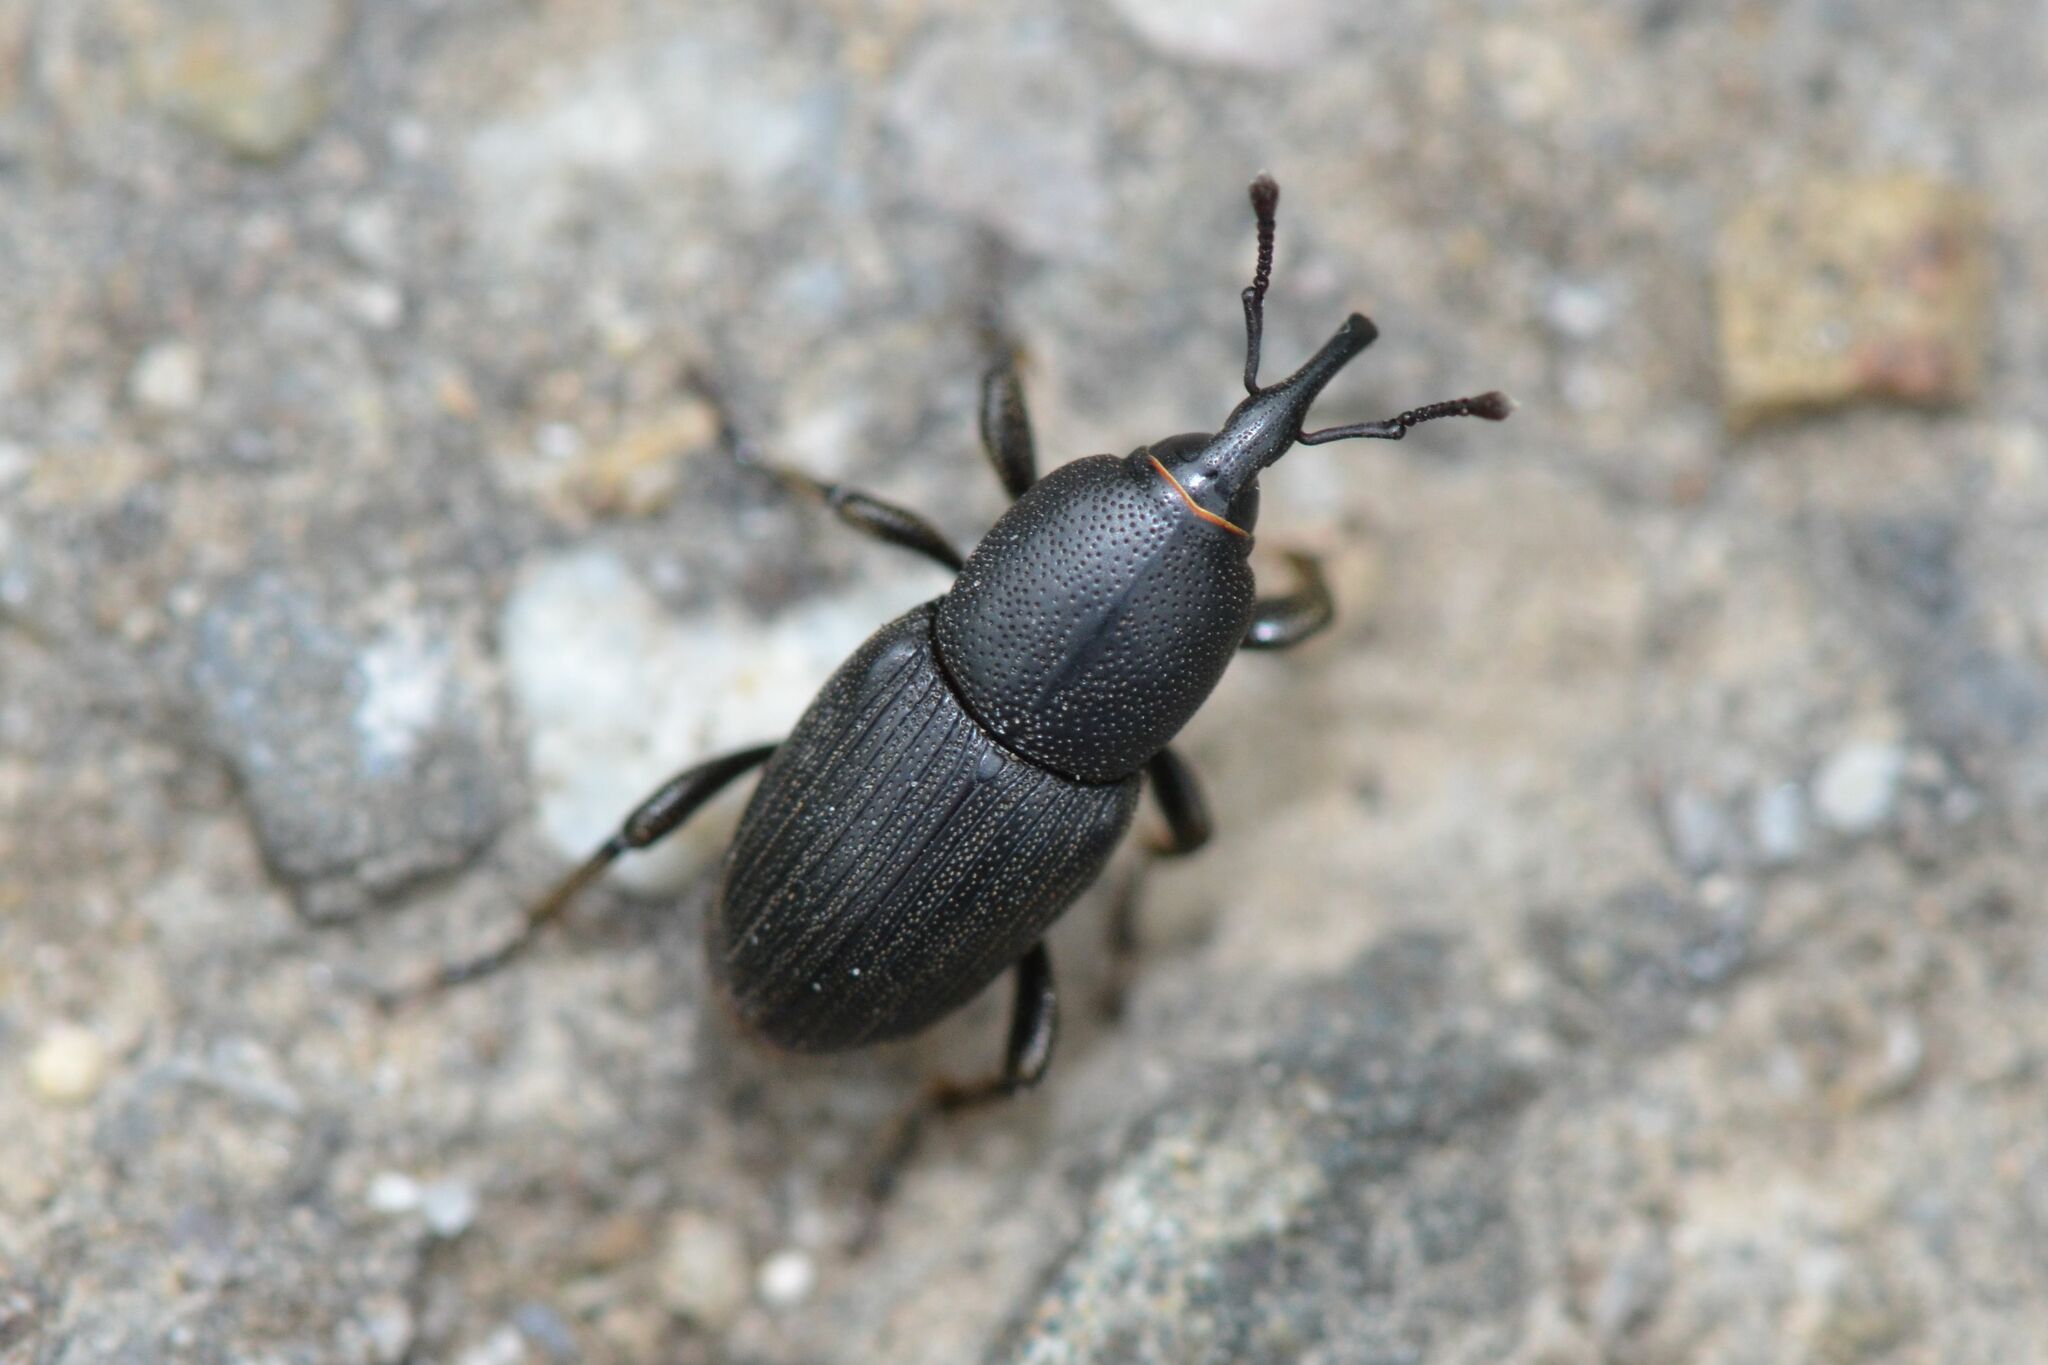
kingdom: Animalia
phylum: Arthropoda
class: Insecta
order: Coleoptera
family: Dryophthoridae
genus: Sphenophorus
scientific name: Sphenophorus striatopunctatus
